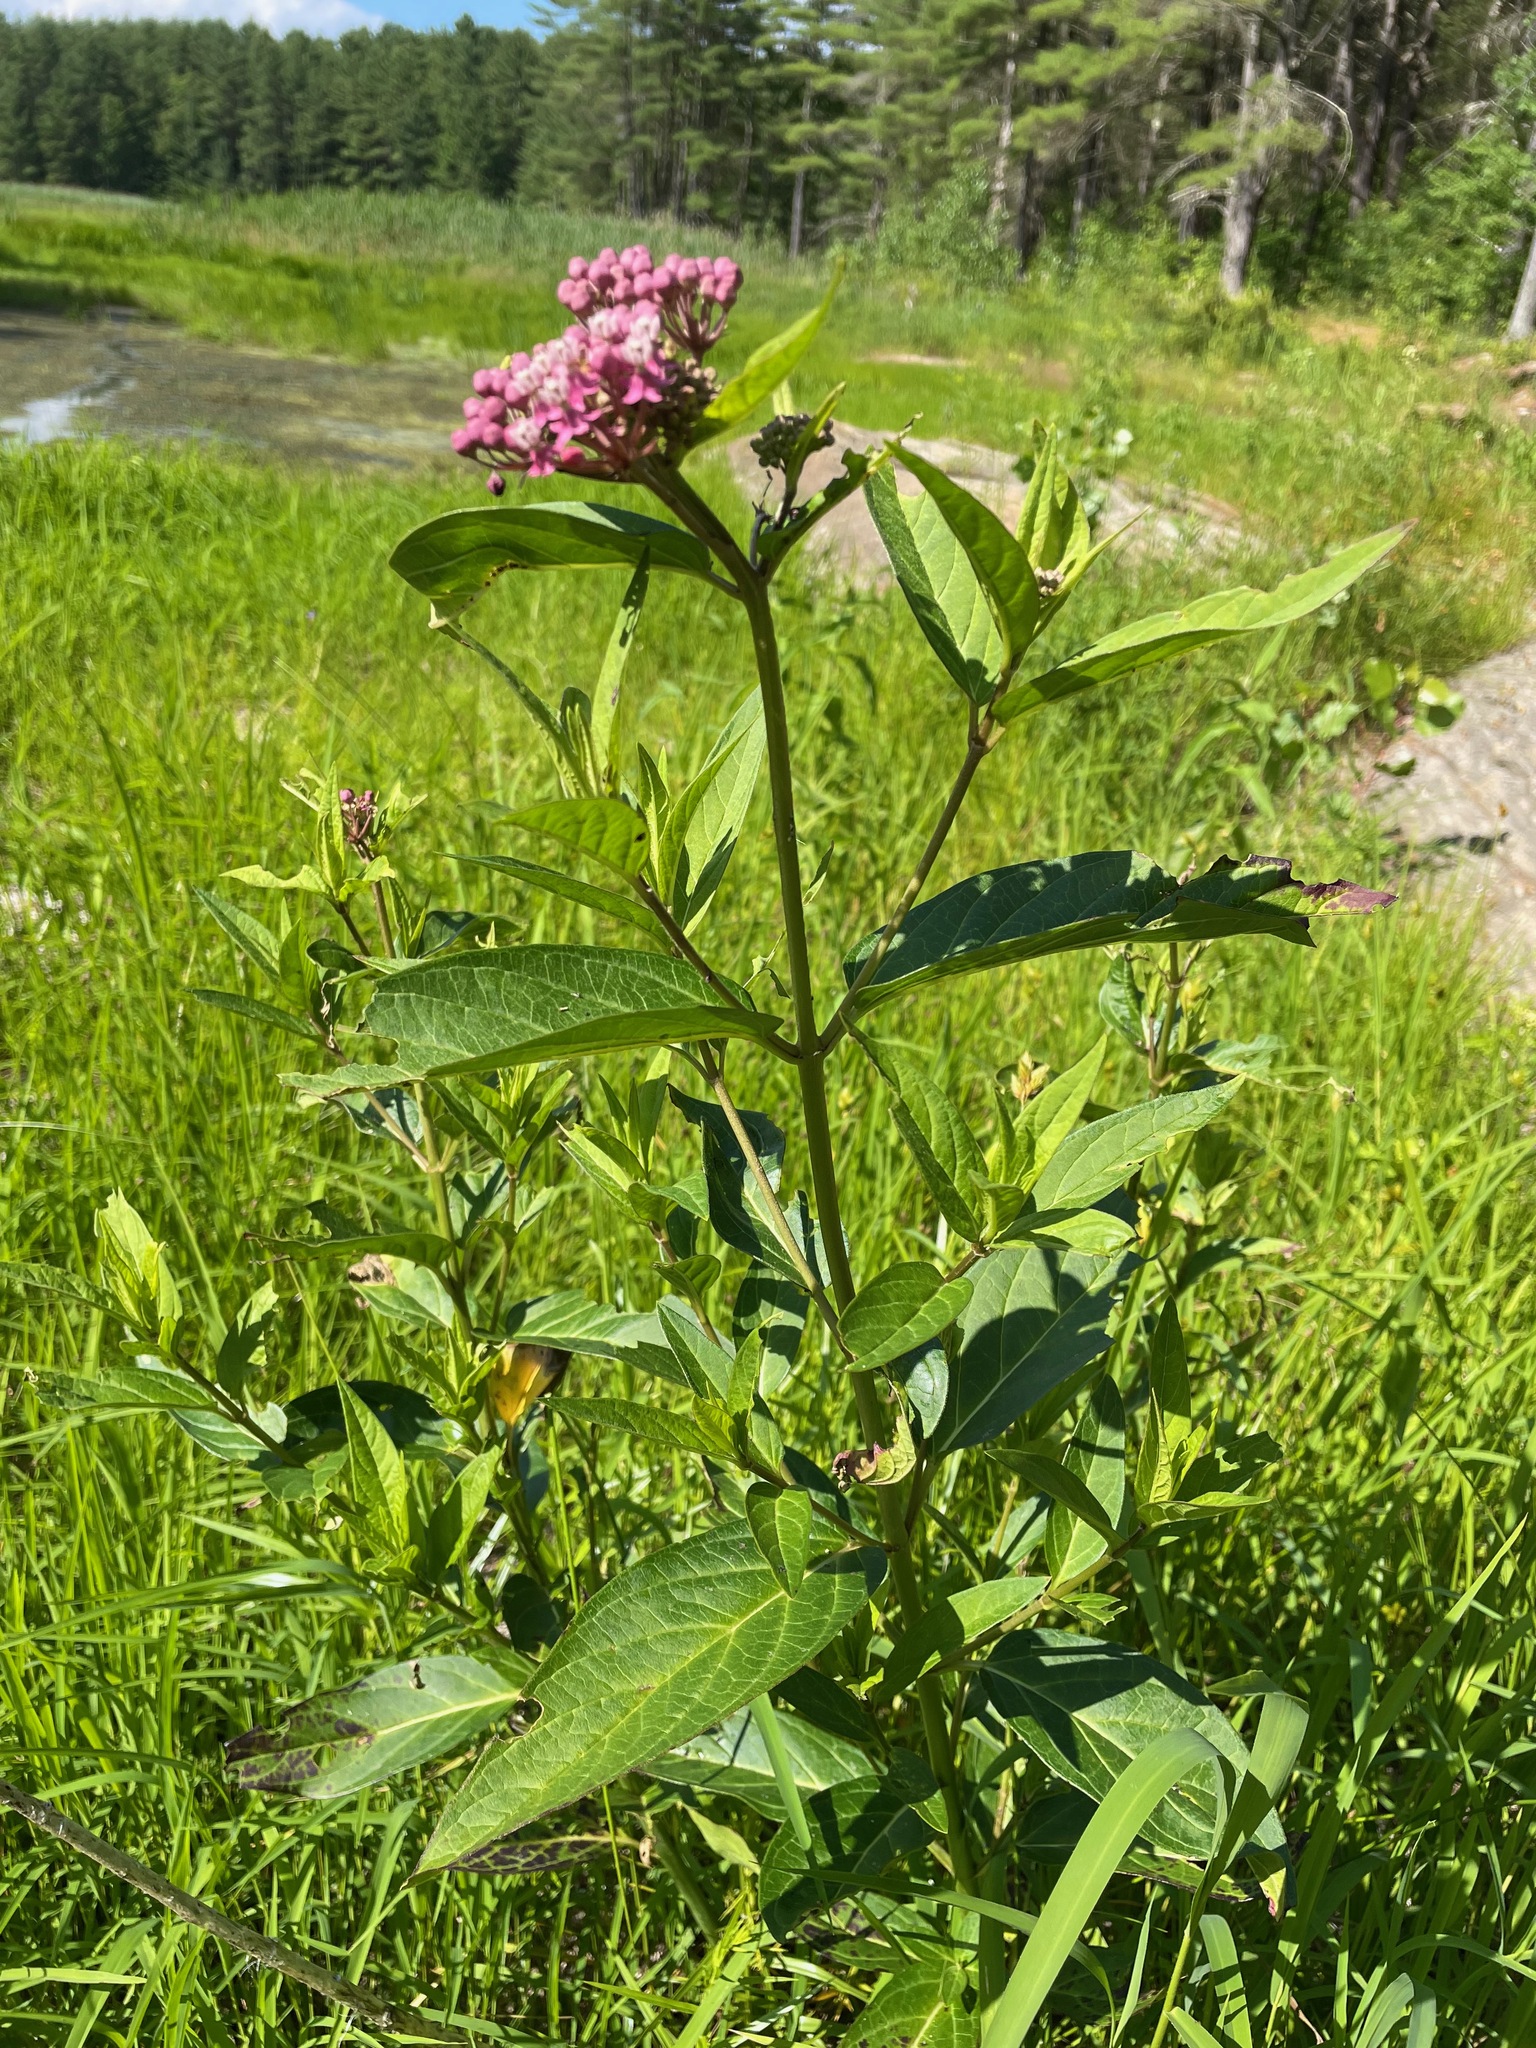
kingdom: Plantae
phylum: Tracheophyta
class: Magnoliopsida
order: Gentianales
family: Apocynaceae
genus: Asclepias
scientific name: Asclepias incarnata
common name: Swamp milkweed
